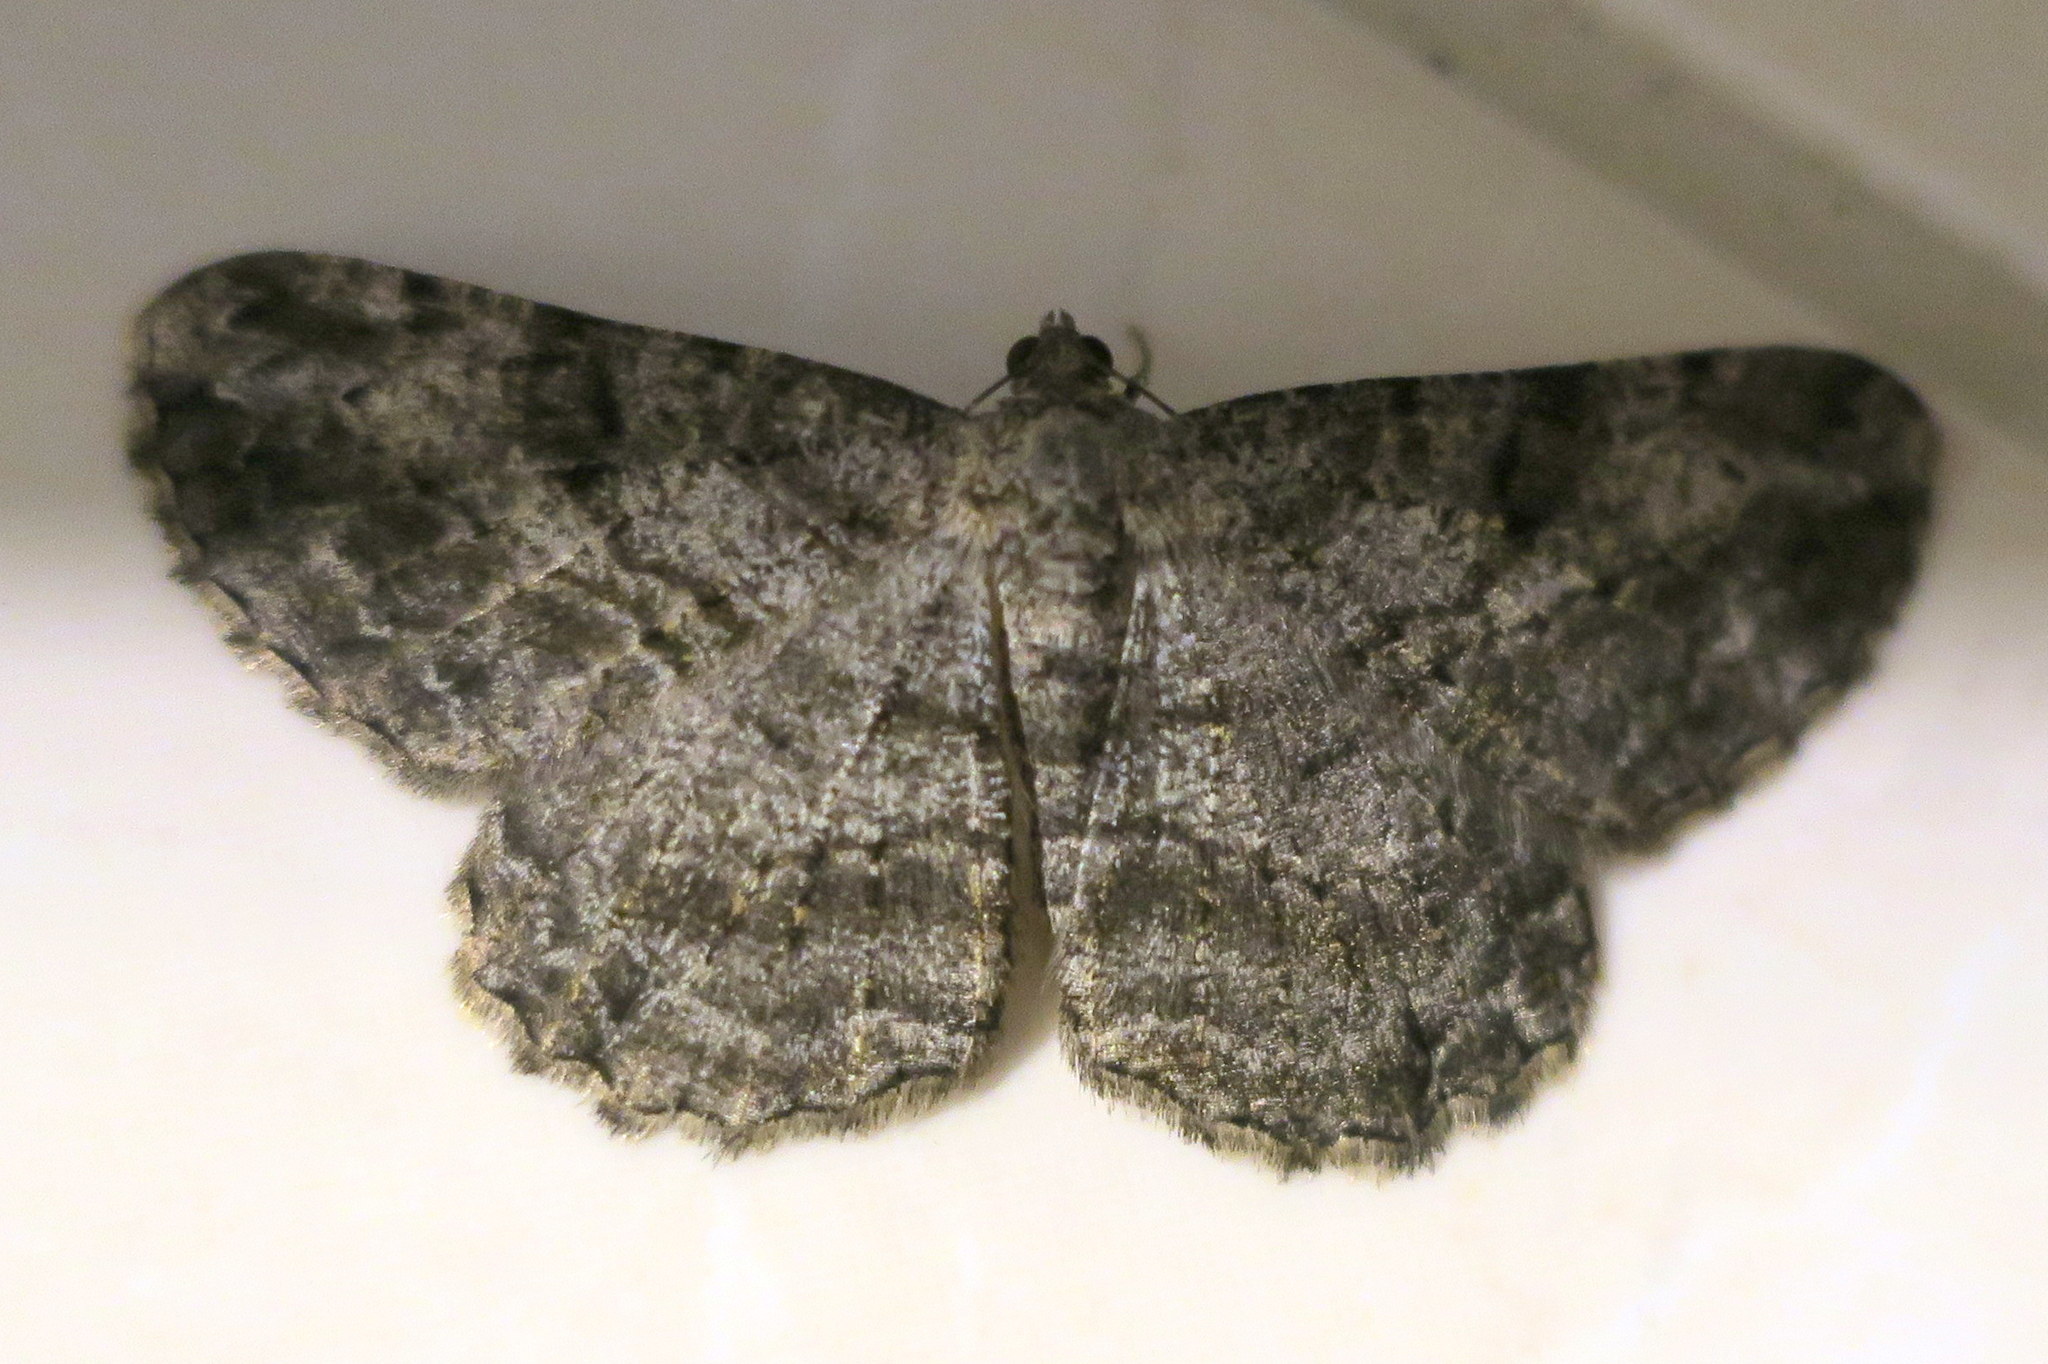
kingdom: Animalia
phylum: Arthropoda
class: Insecta
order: Lepidoptera
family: Geometridae
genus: Peribatodes
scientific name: Peribatodes rhomboidaria
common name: Willow beauty
